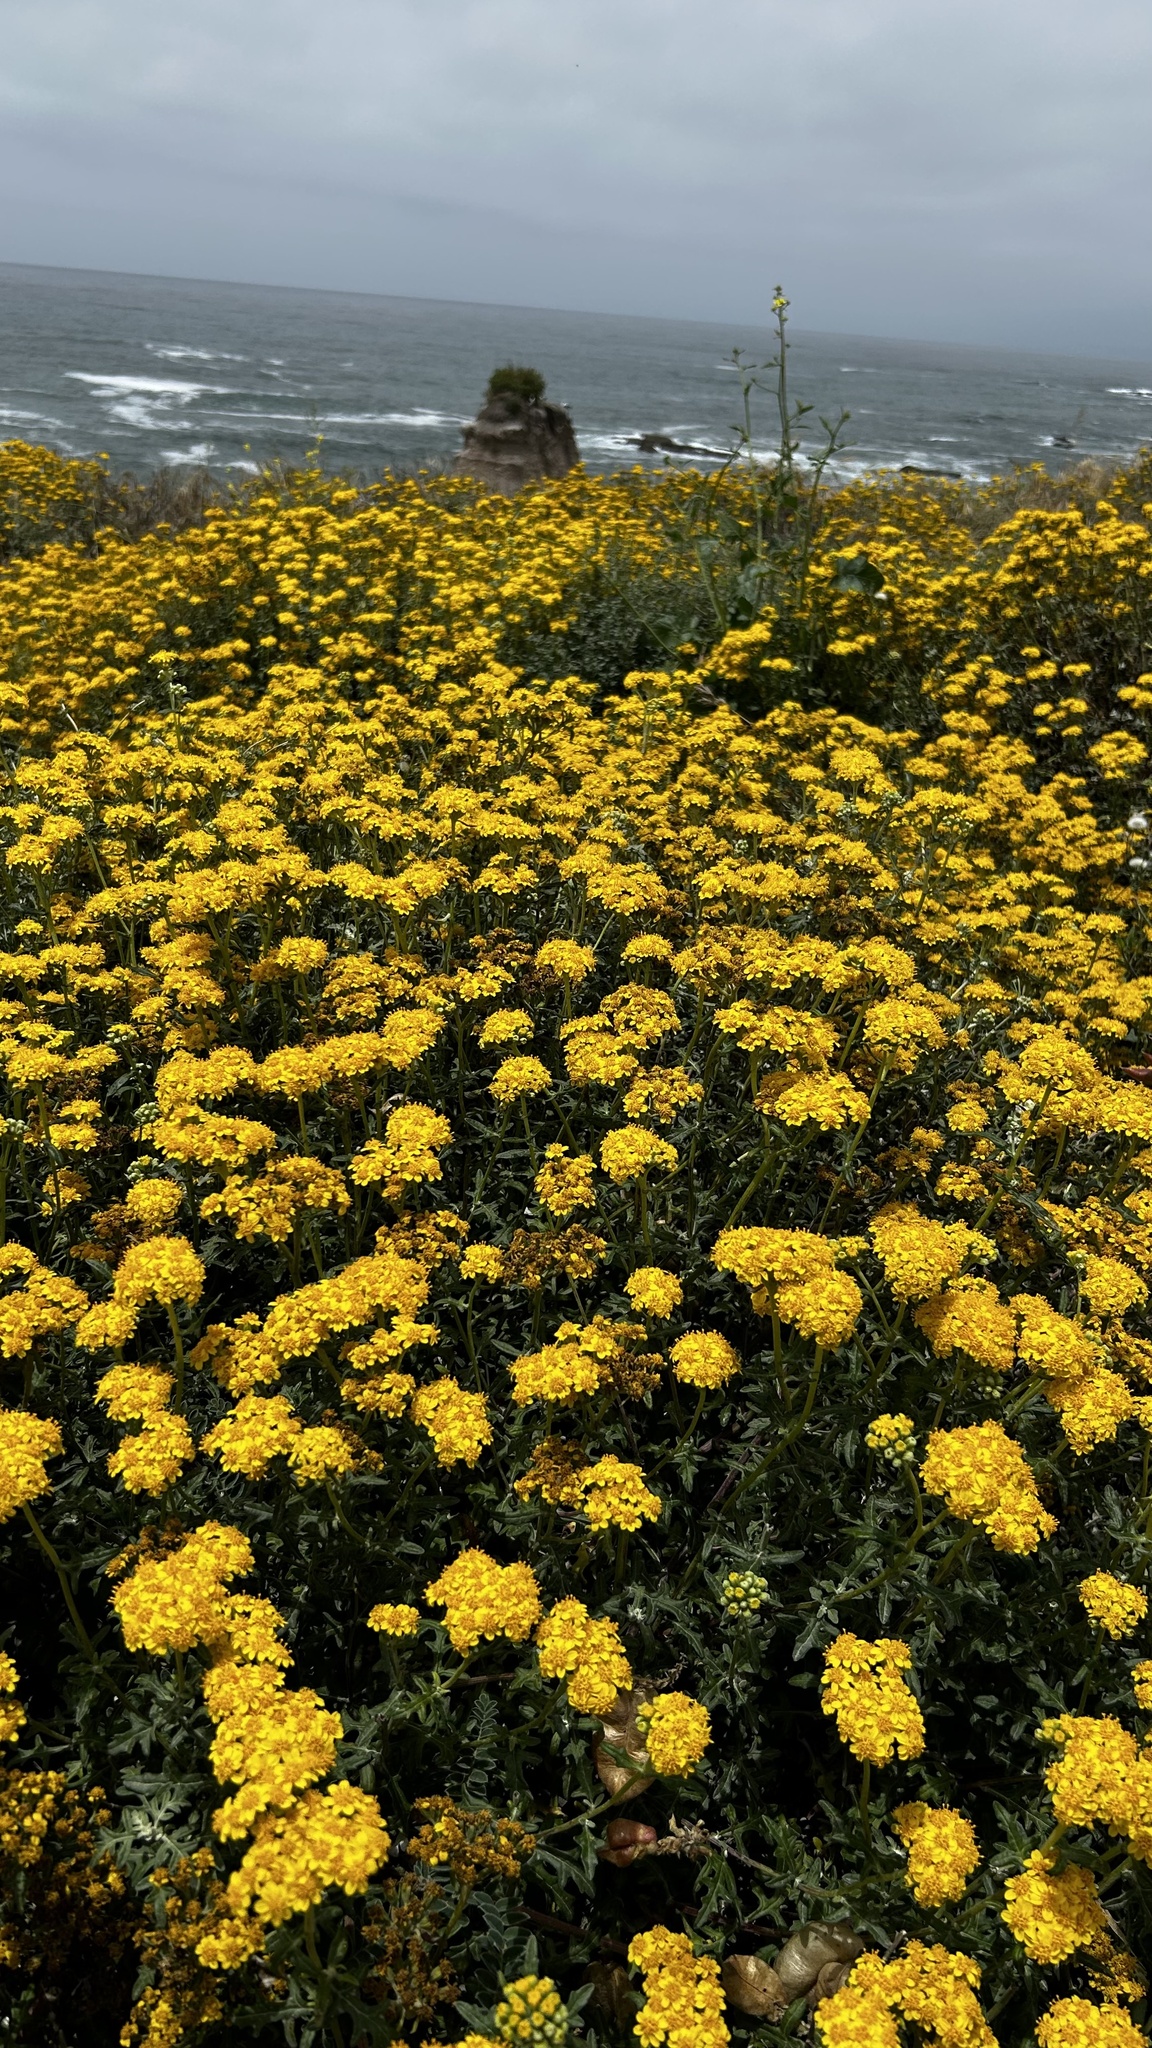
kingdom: Plantae
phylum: Tracheophyta
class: Magnoliopsida
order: Asterales
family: Asteraceae
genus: Eriophyllum
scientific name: Eriophyllum staechadifolium
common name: Lizardtail
